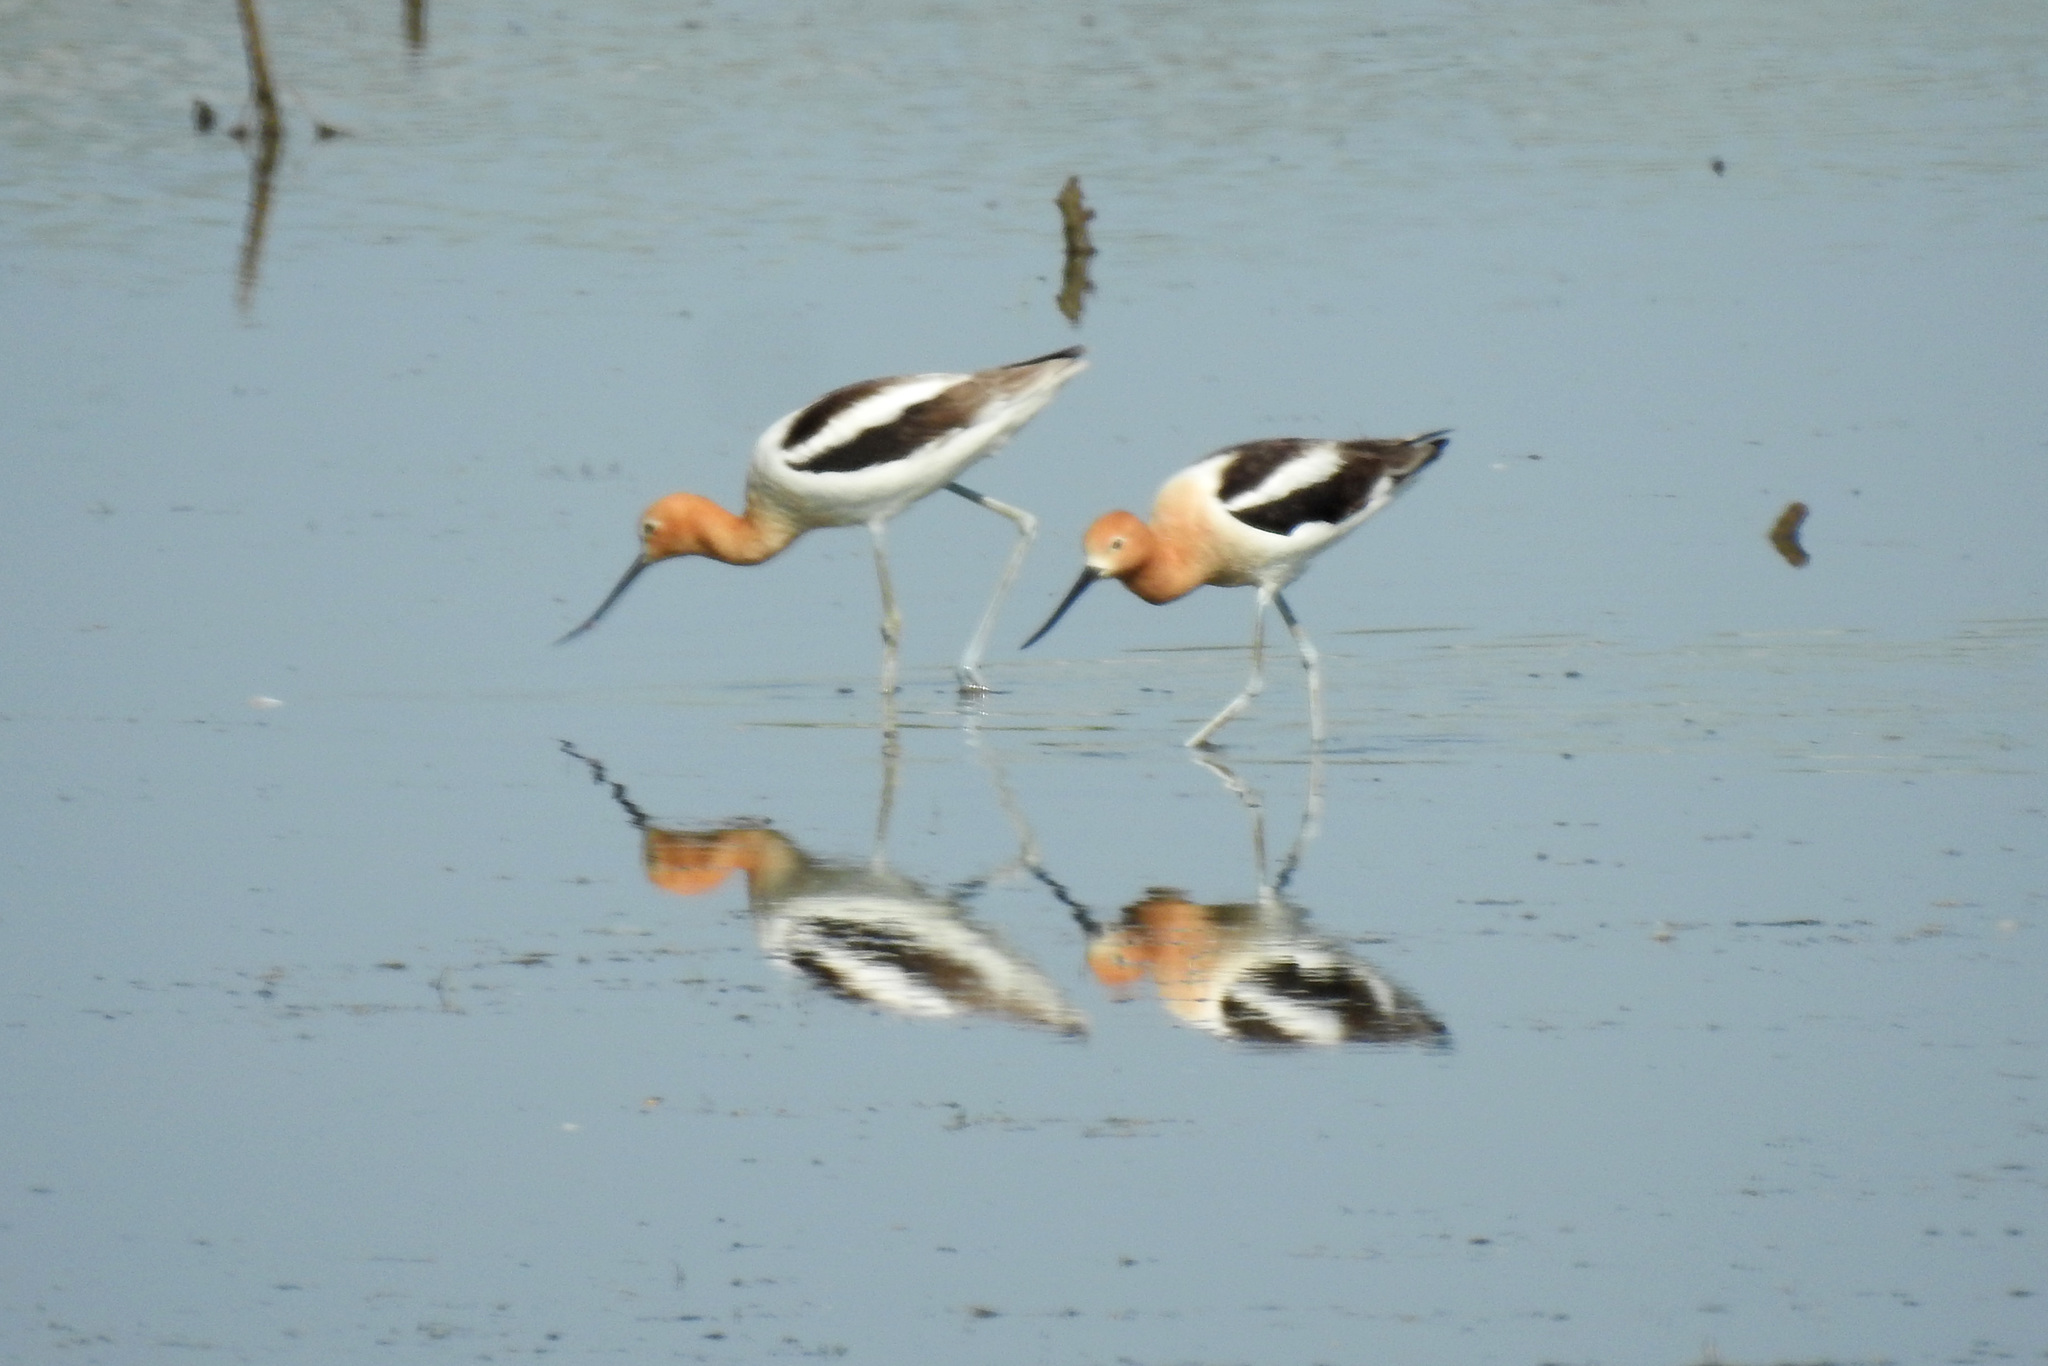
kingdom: Animalia
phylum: Chordata
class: Aves
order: Charadriiformes
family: Recurvirostridae
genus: Recurvirostra
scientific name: Recurvirostra americana
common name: American avocet
